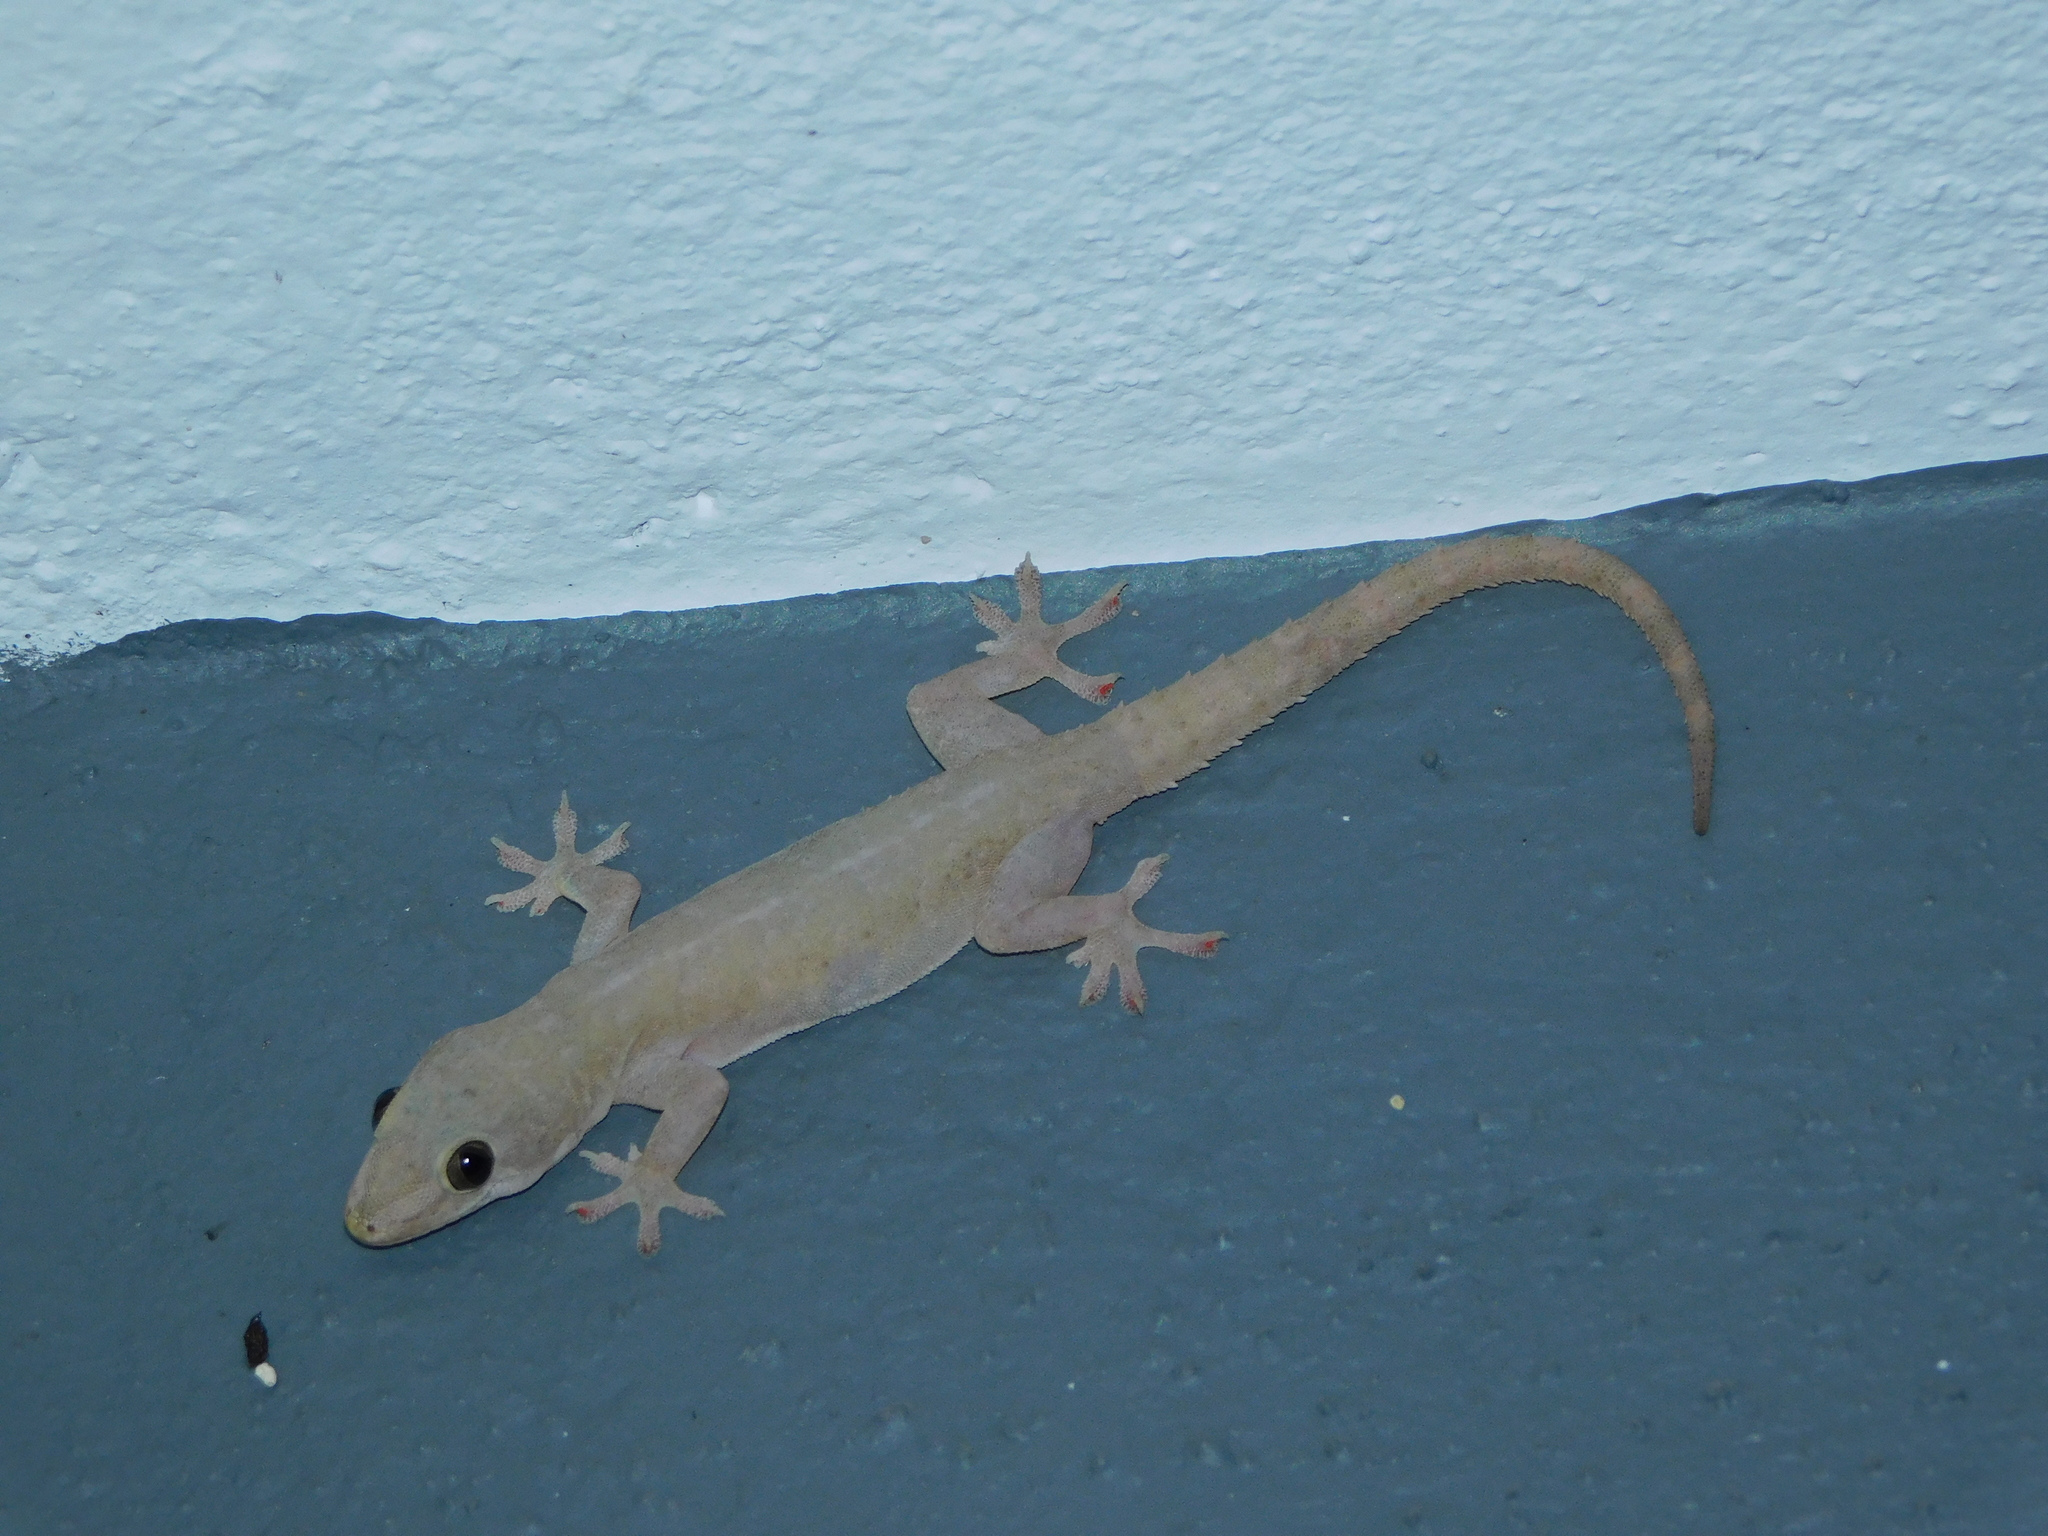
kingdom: Animalia
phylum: Chordata
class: Squamata
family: Gekkonidae
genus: Hemidactylus
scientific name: Hemidactylus frenatus
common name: Common house gecko
